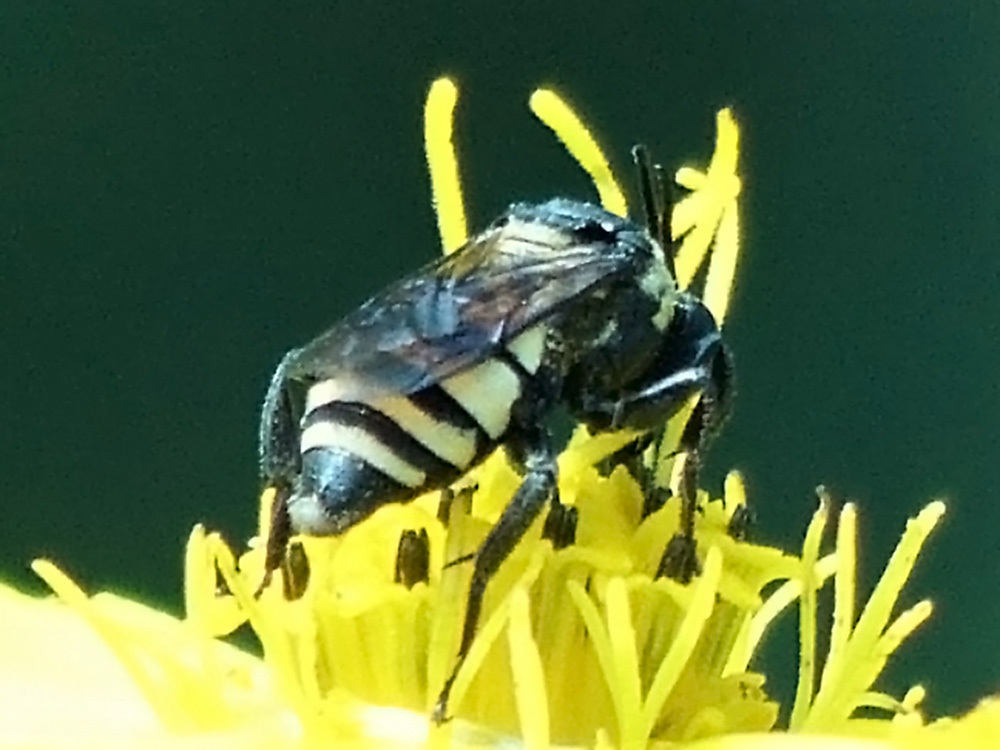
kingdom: Animalia
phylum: Arthropoda
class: Insecta
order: Hymenoptera
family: Apidae
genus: Triepeolus
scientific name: Triepeolus concavus
